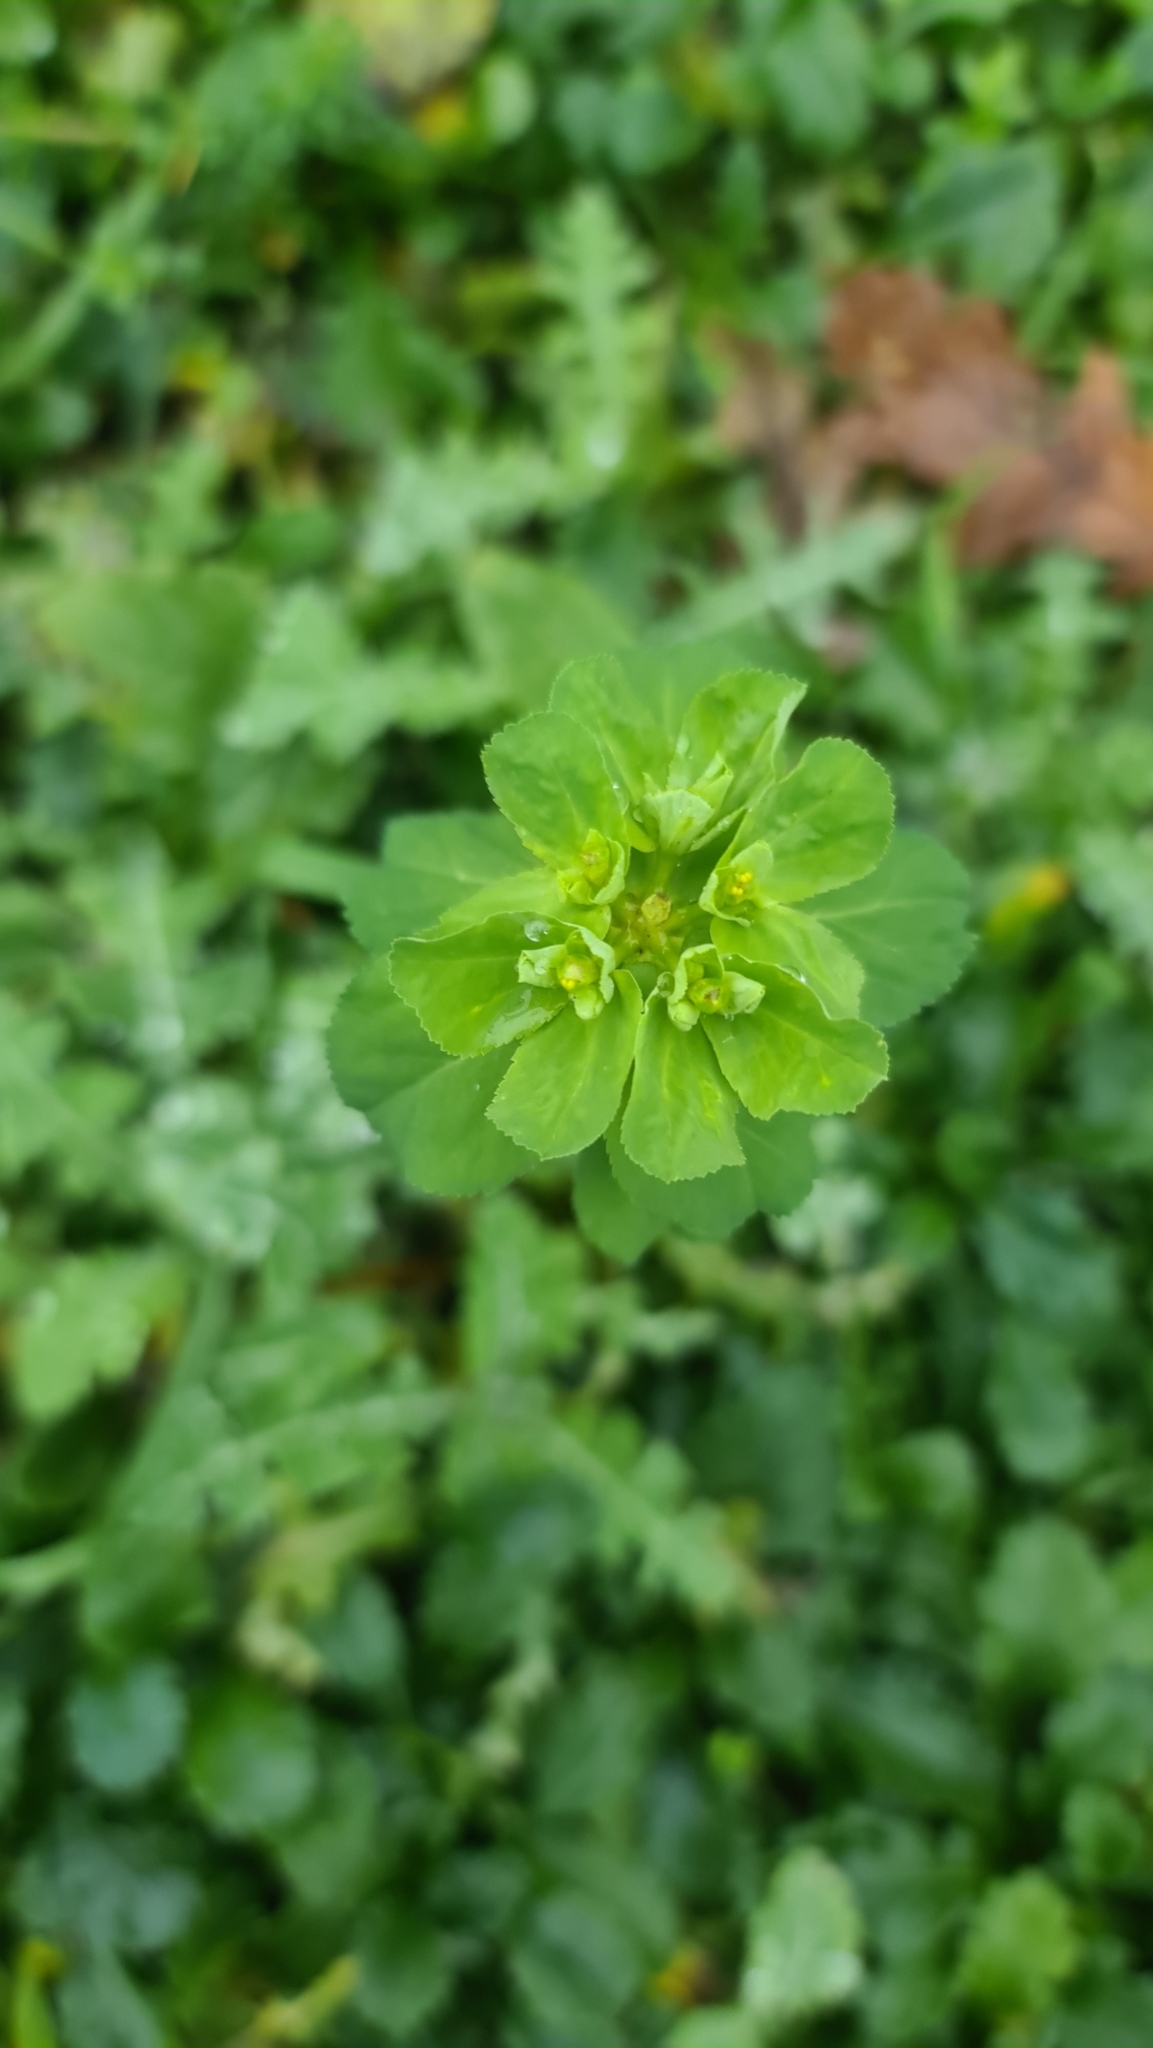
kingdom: Plantae
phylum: Tracheophyta
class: Magnoliopsida
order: Malpighiales
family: Euphorbiaceae
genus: Euphorbia
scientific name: Euphorbia helioscopia
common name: Sun spurge
